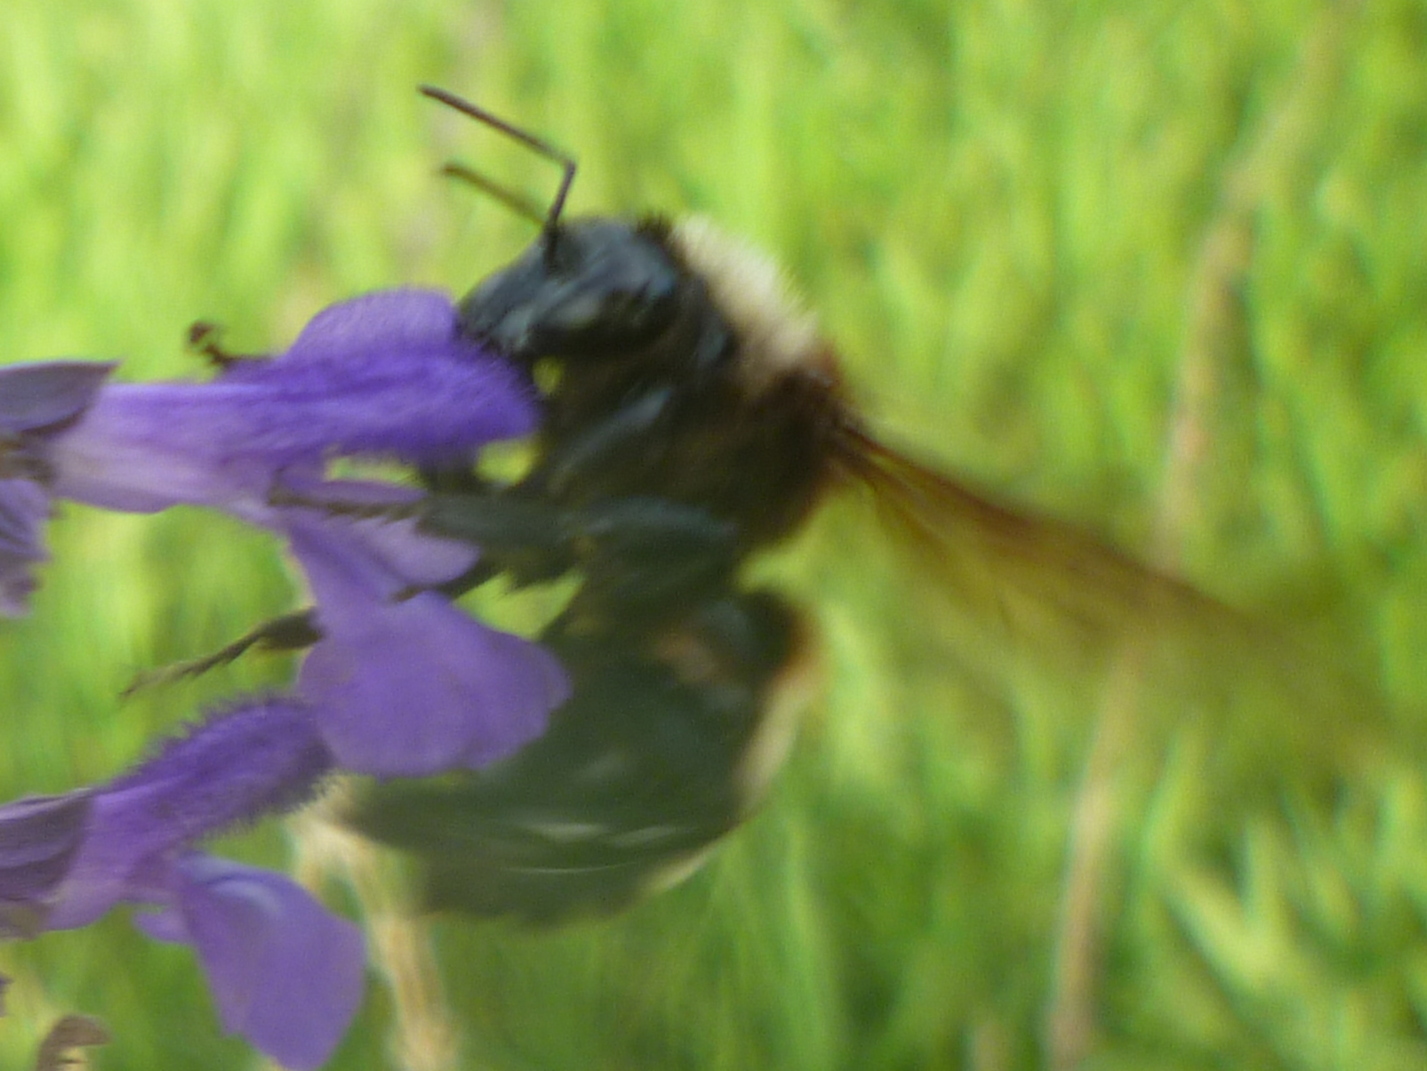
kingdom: Animalia
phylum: Arthropoda
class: Insecta
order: Hymenoptera
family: Apidae
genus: Bombus
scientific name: Bombus pensylvanicus
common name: Bumble bee
